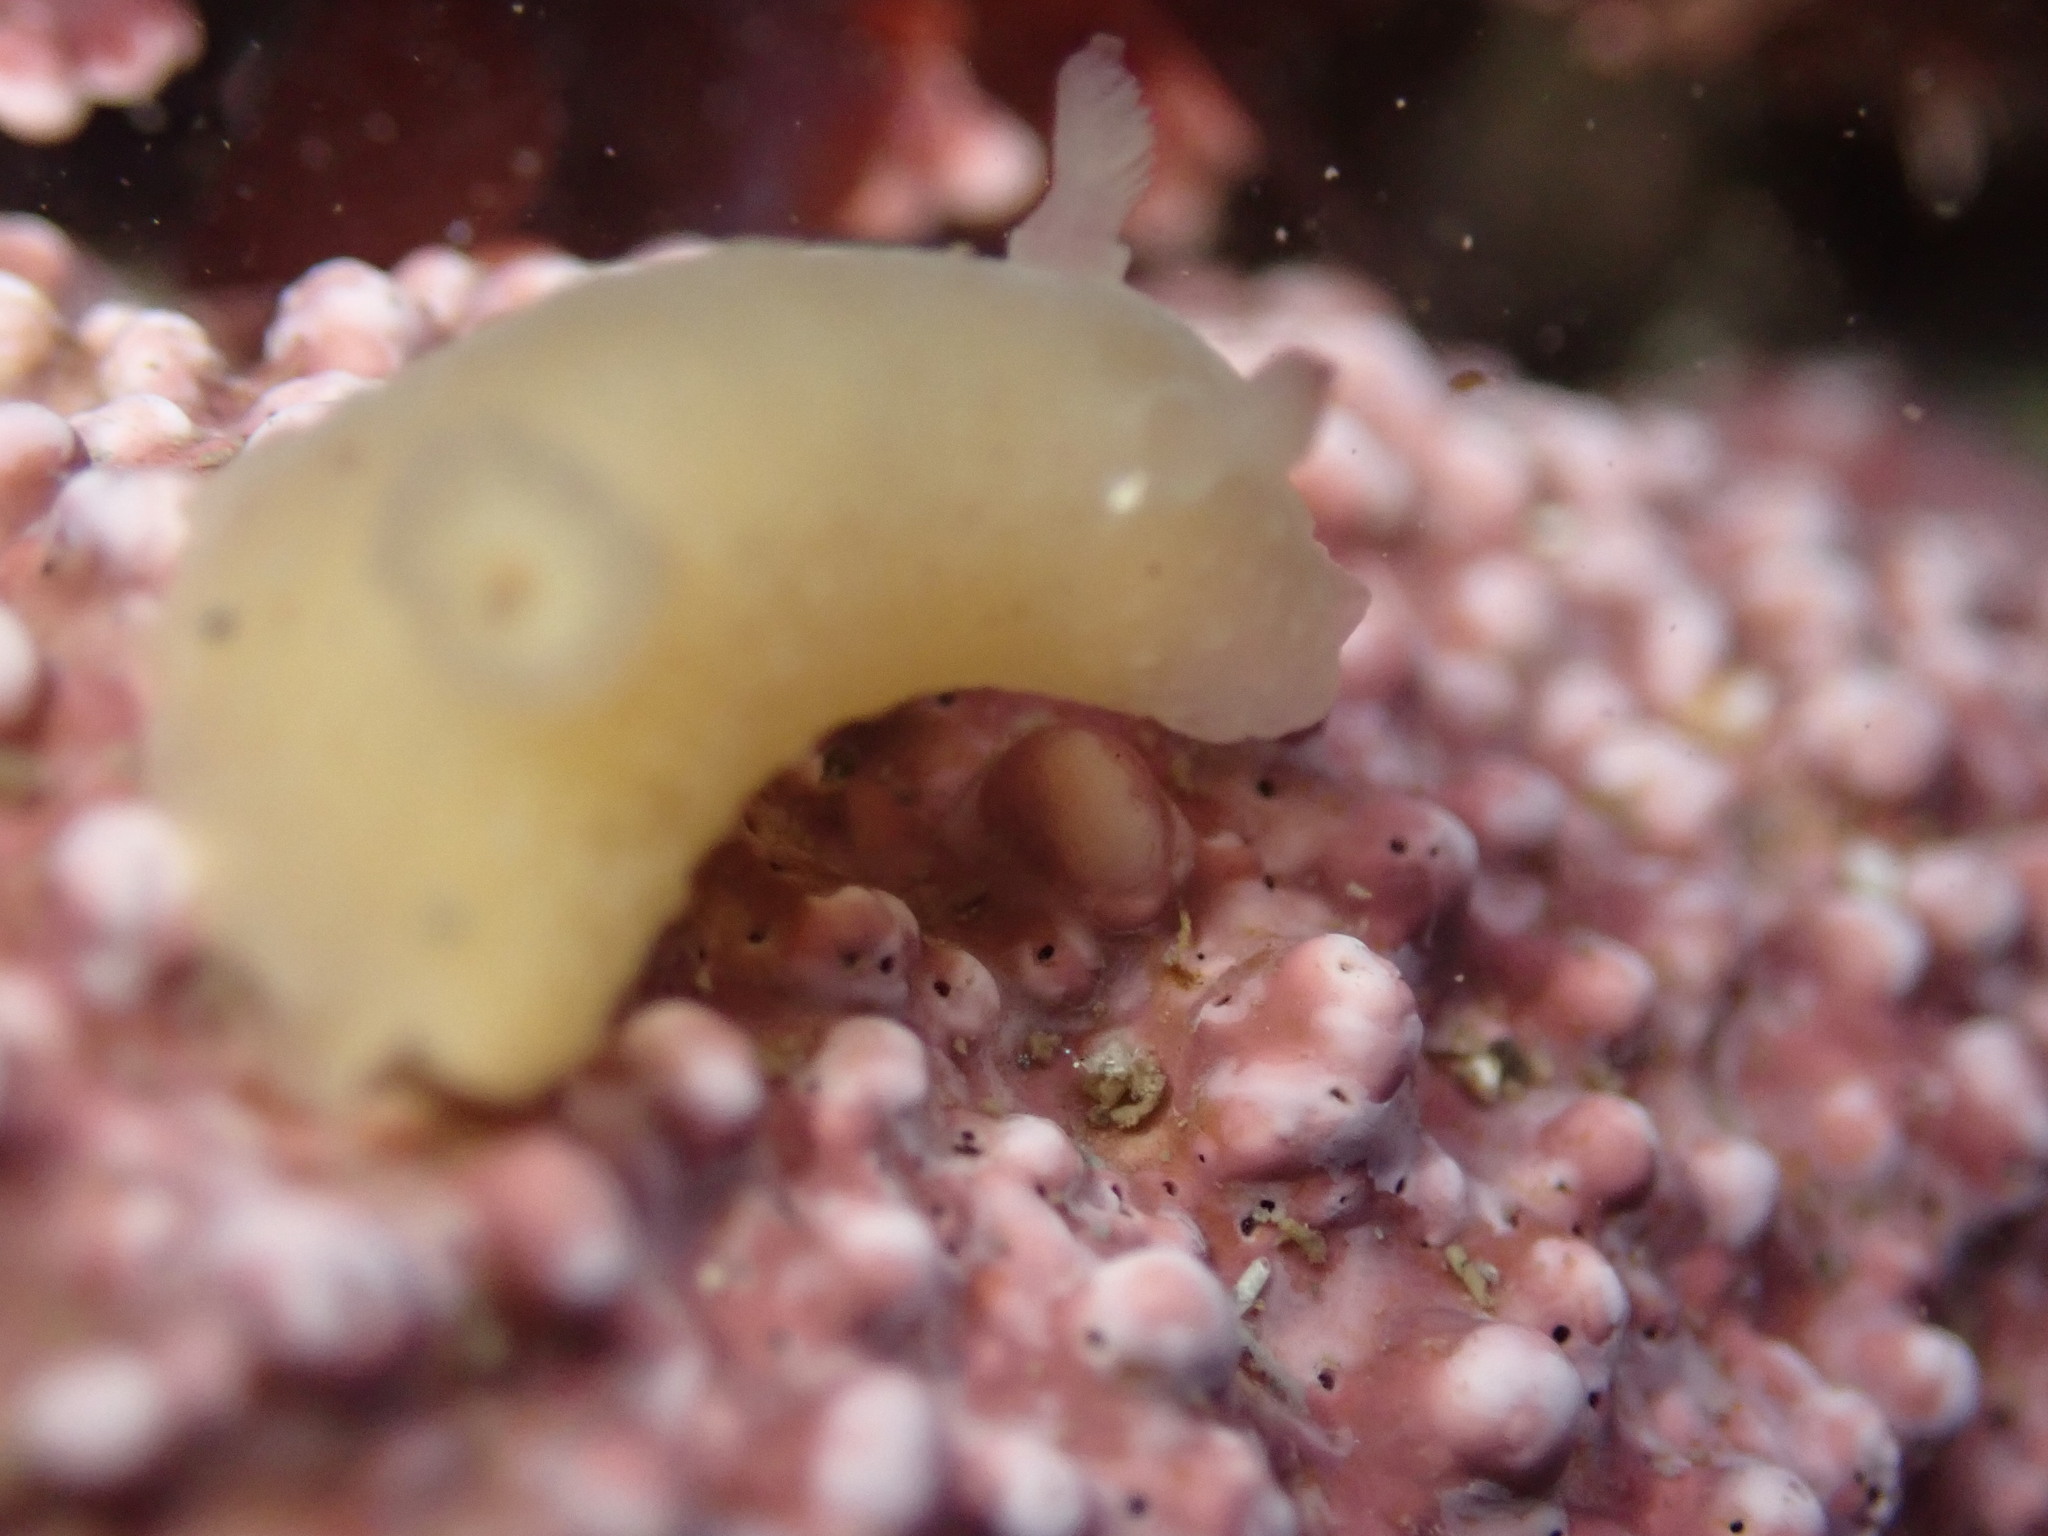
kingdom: Animalia
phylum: Mollusca
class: Gastropoda
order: Nudibranchia
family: Actinocyclidae
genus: Hallaxa
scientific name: Hallaxa chani
